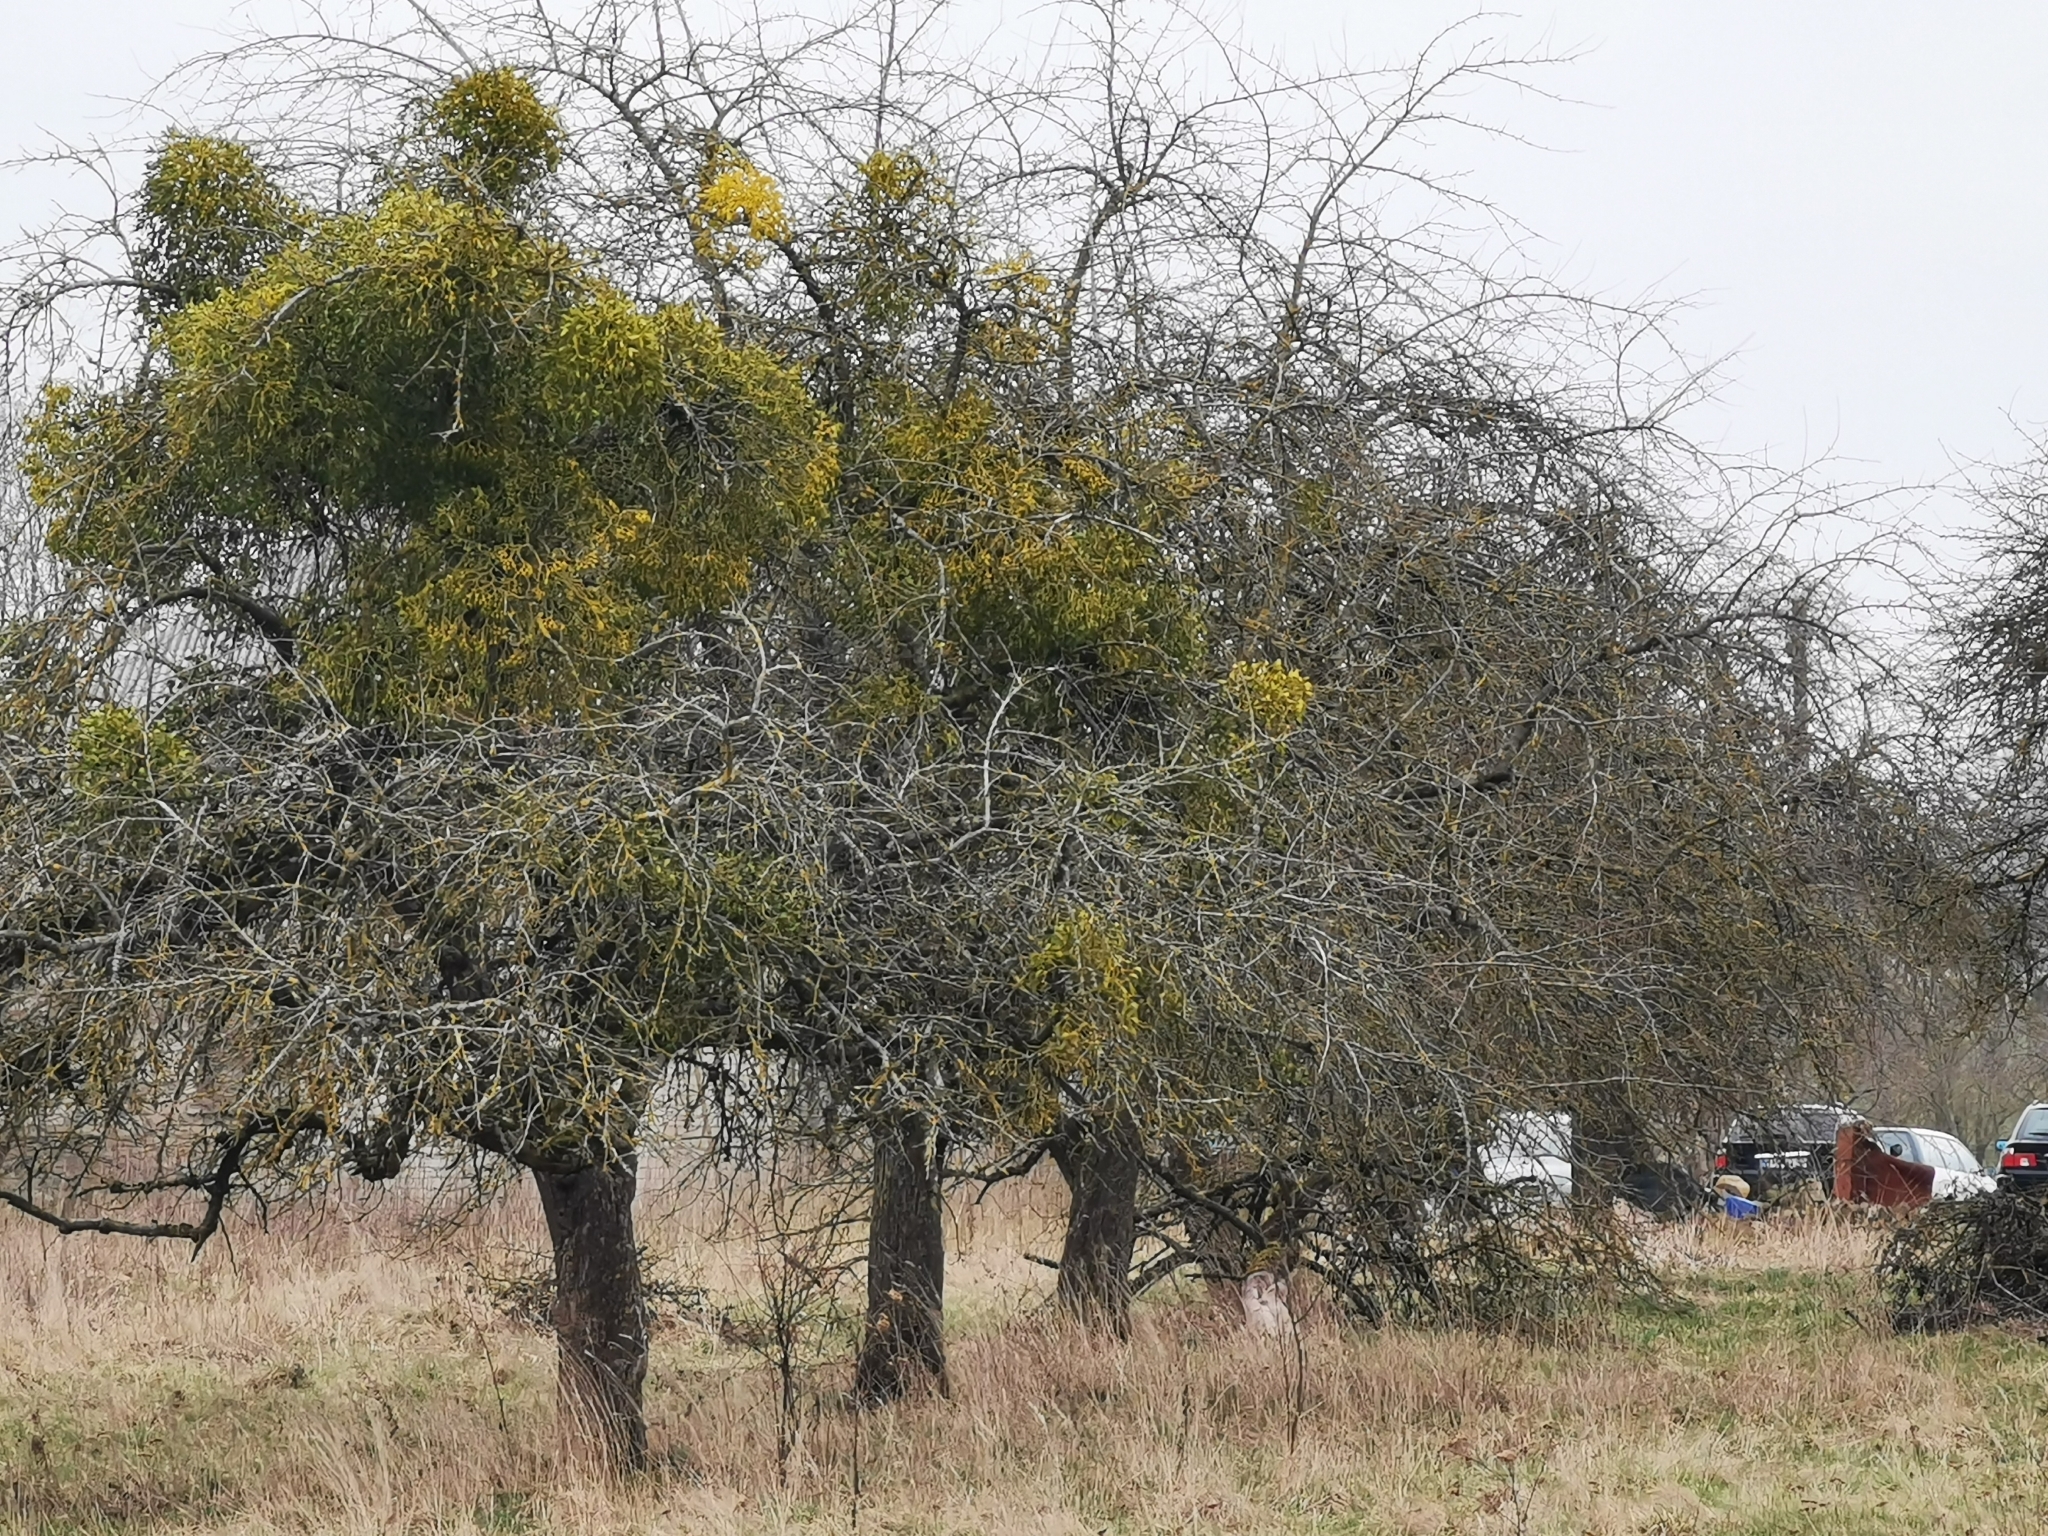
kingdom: Plantae
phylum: Tracheophyta
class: Magnoliopsida
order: Santalales
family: Viscaceae
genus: Viscum
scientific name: Viscum album
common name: Mistletoe
